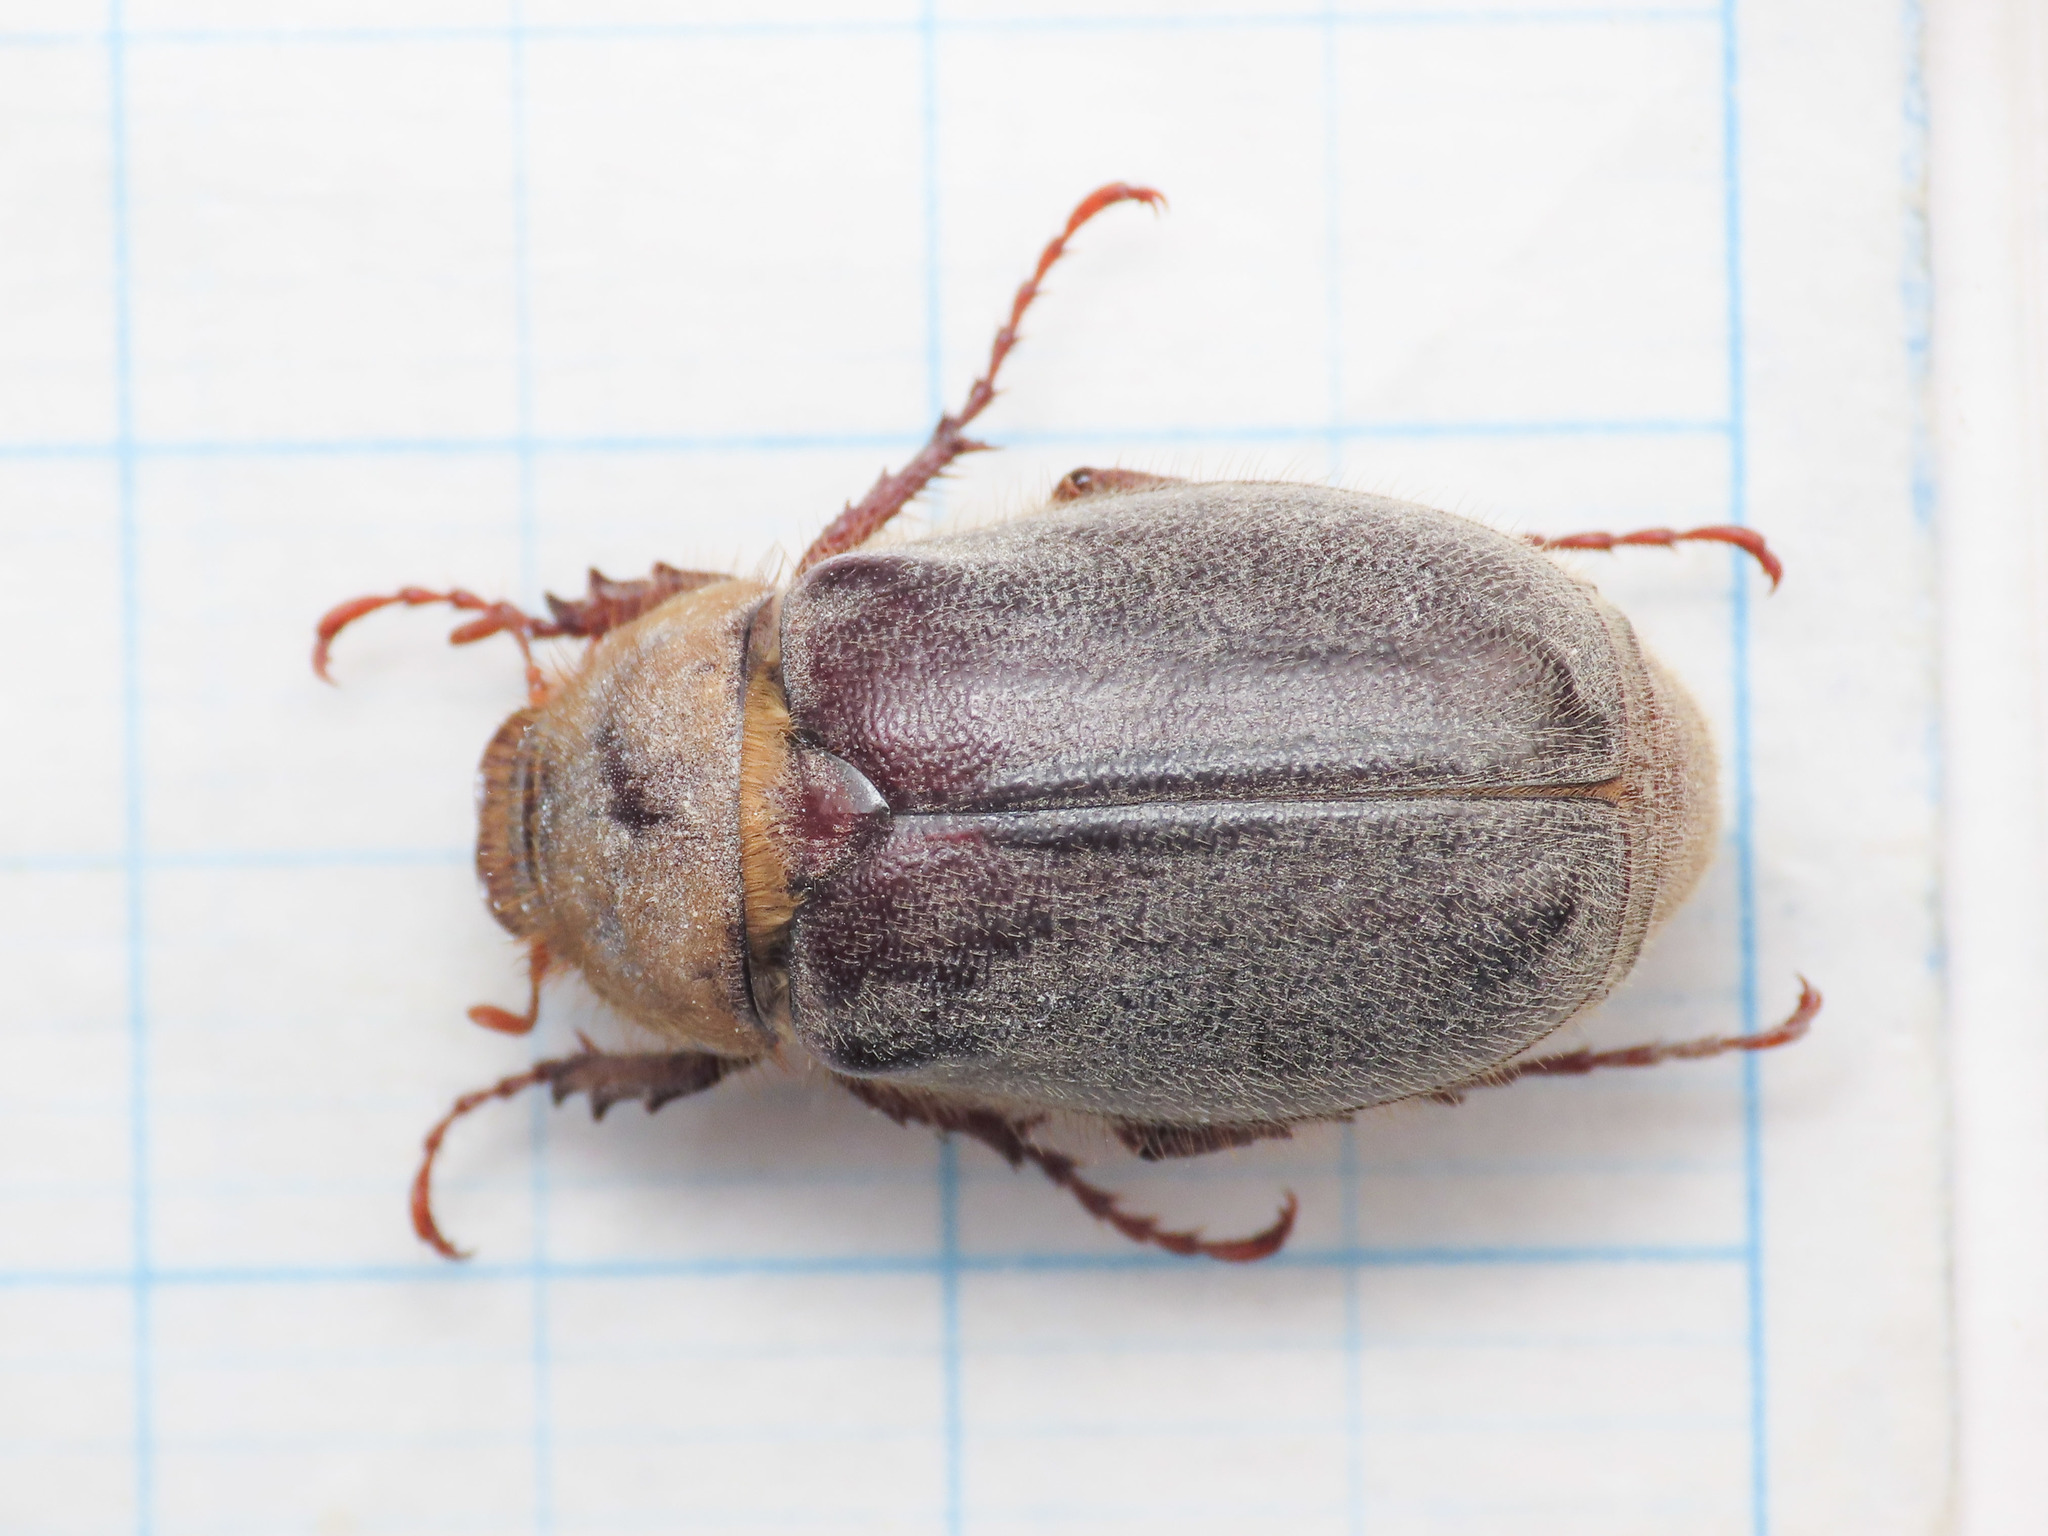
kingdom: Animalia
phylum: Arthropoda
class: Insecta
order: Coleoptera
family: Scarabaeidae
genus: Aplidia
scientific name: Aplidia
